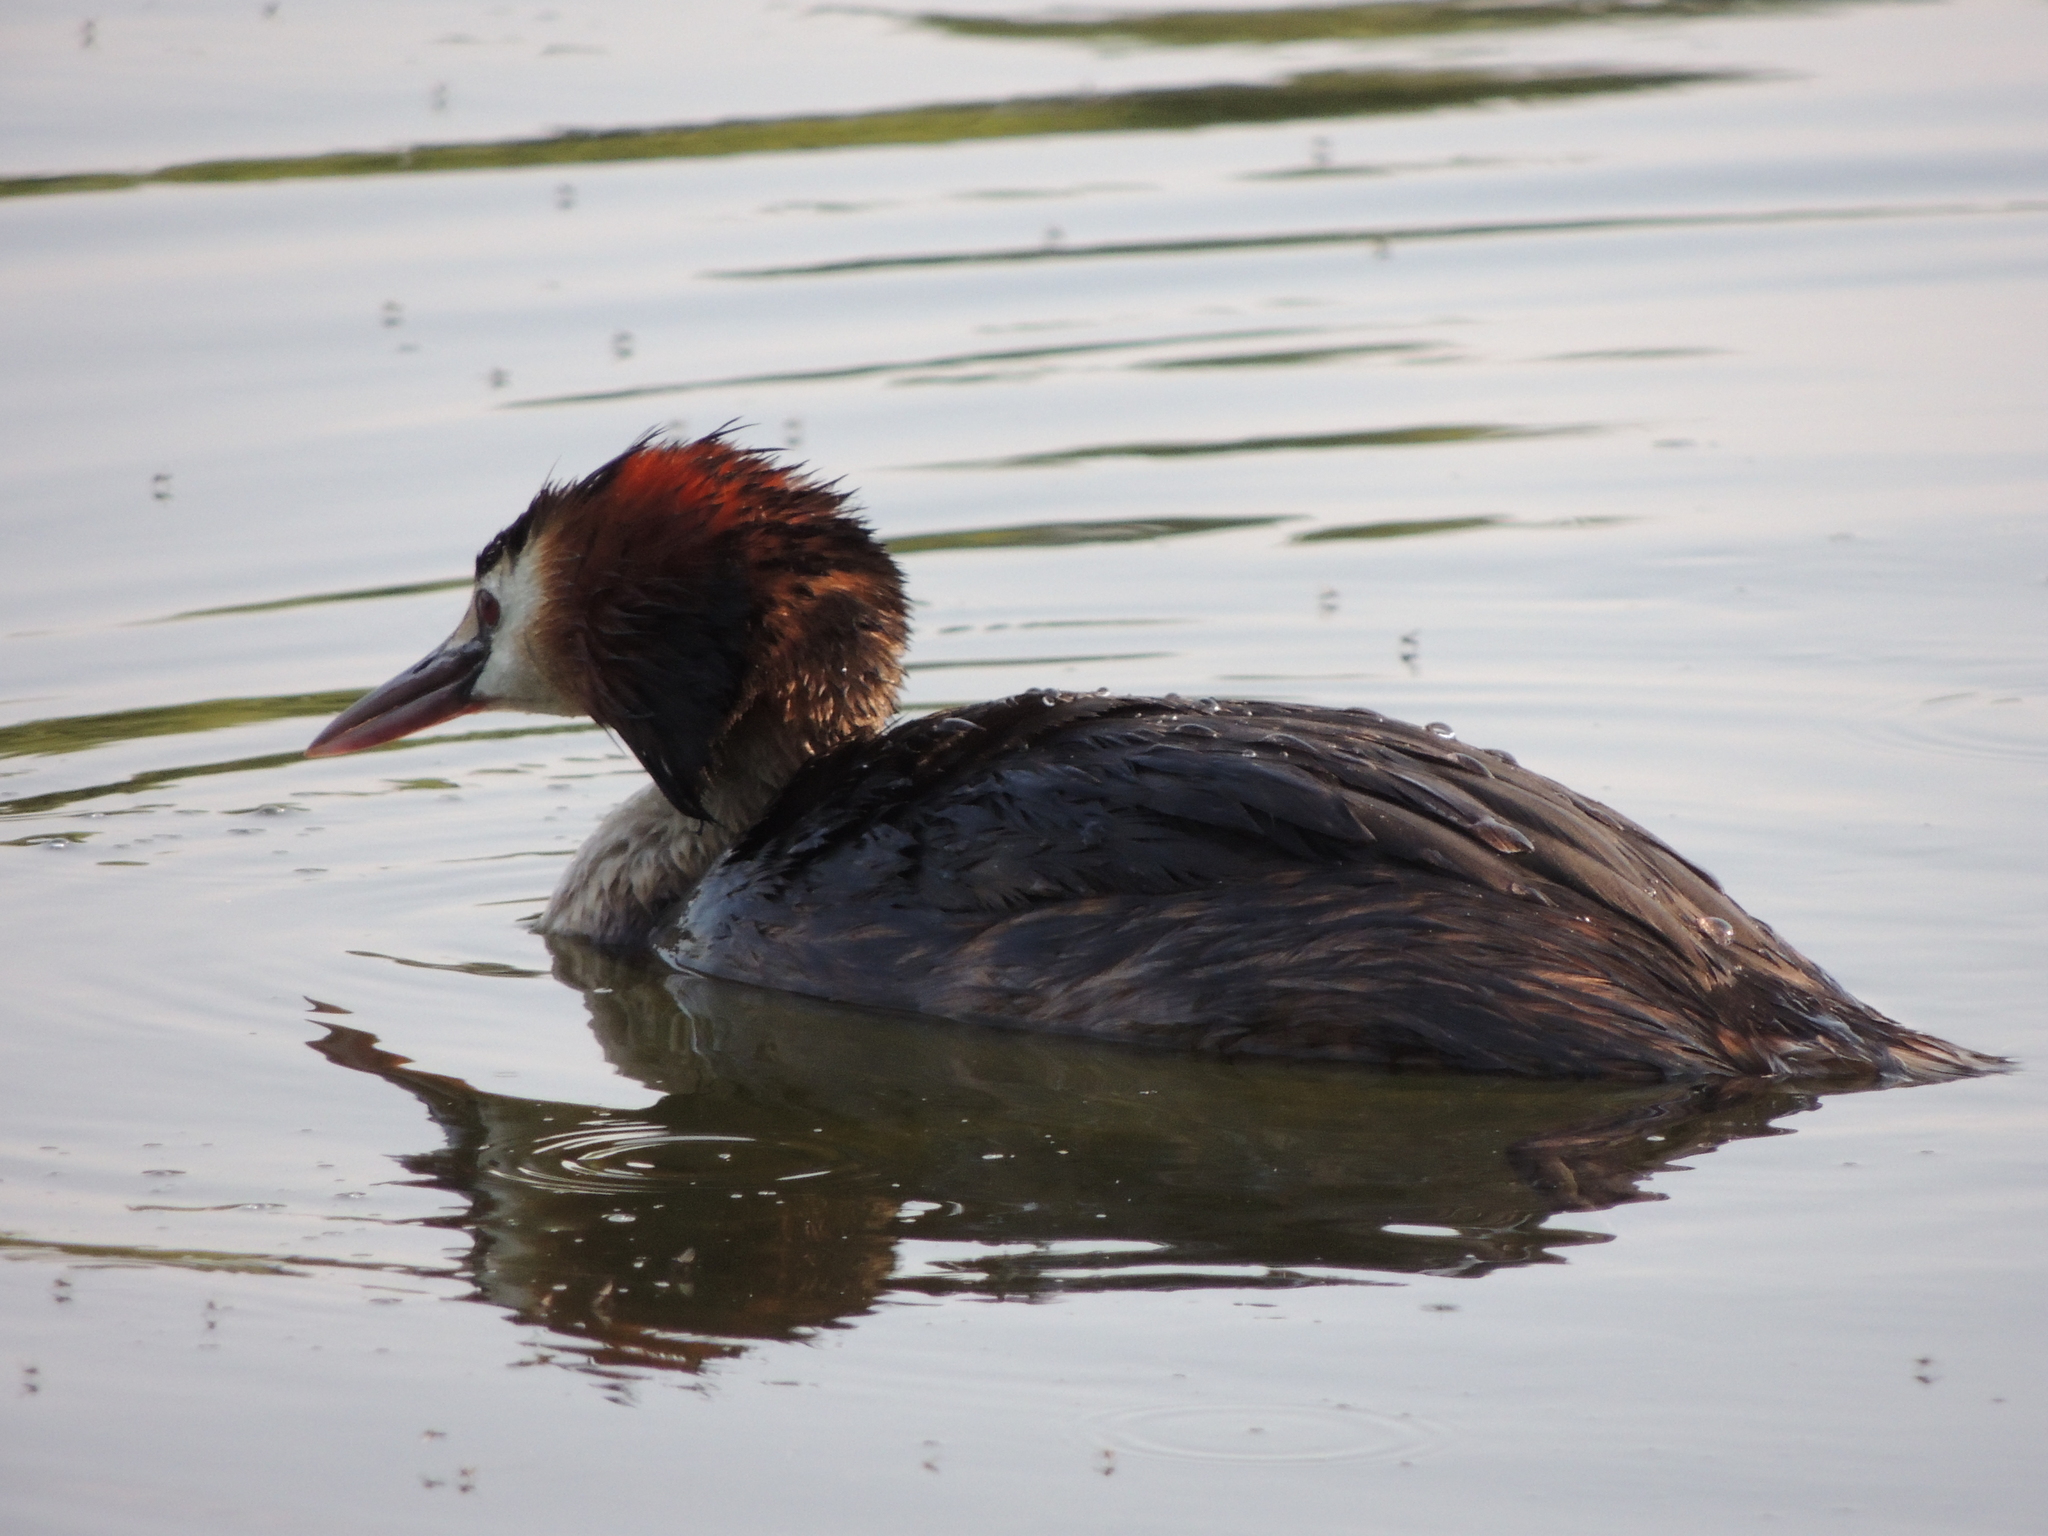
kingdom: Animalia
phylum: Chordata
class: Aves
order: Podicipediformes
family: Podicipedidae
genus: Podiceps
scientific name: Podiceps cristatus
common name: Great crested grebe
